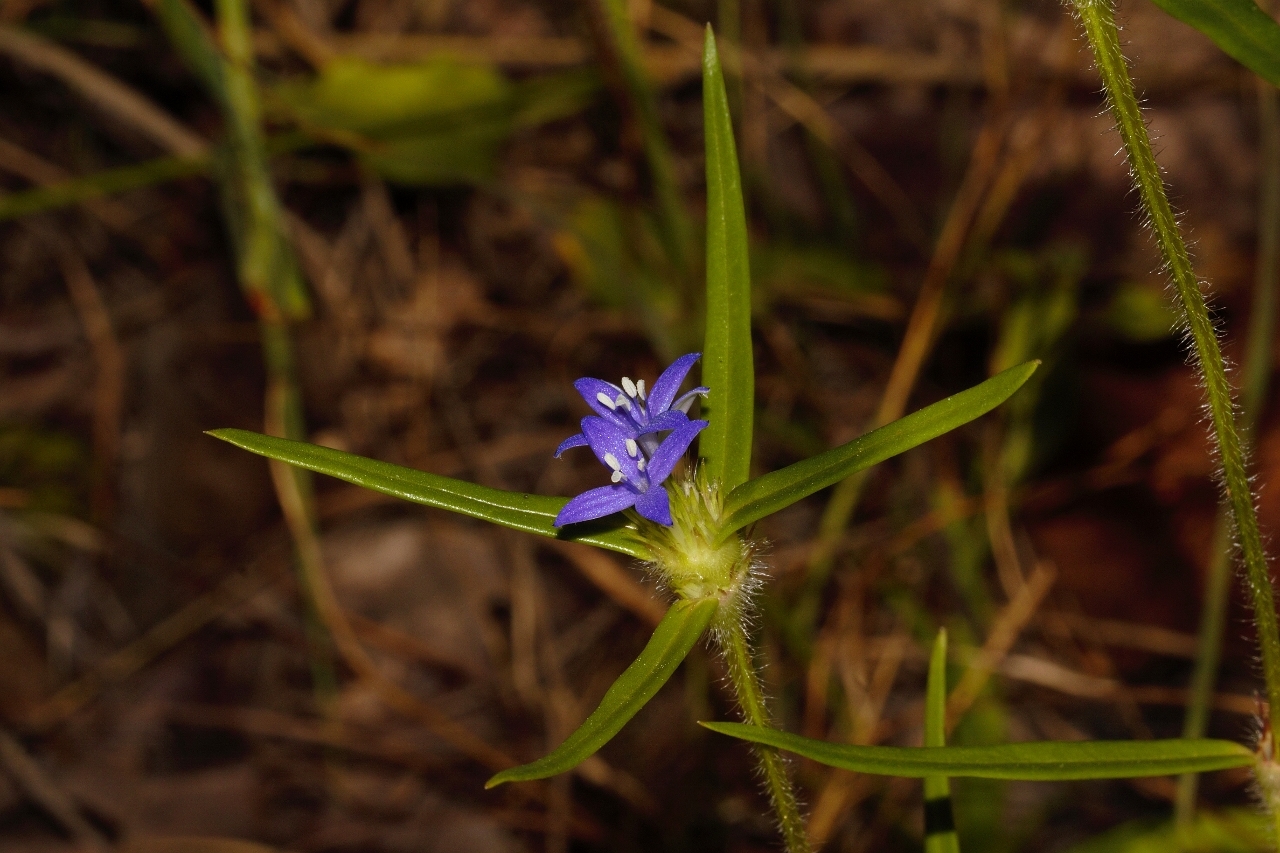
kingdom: Plantae
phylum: Tracheophyta
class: Magnoliopsida
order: Gentianales
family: Rubiaceae
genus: Spermacoce
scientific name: Spermacoce dibrachiata
